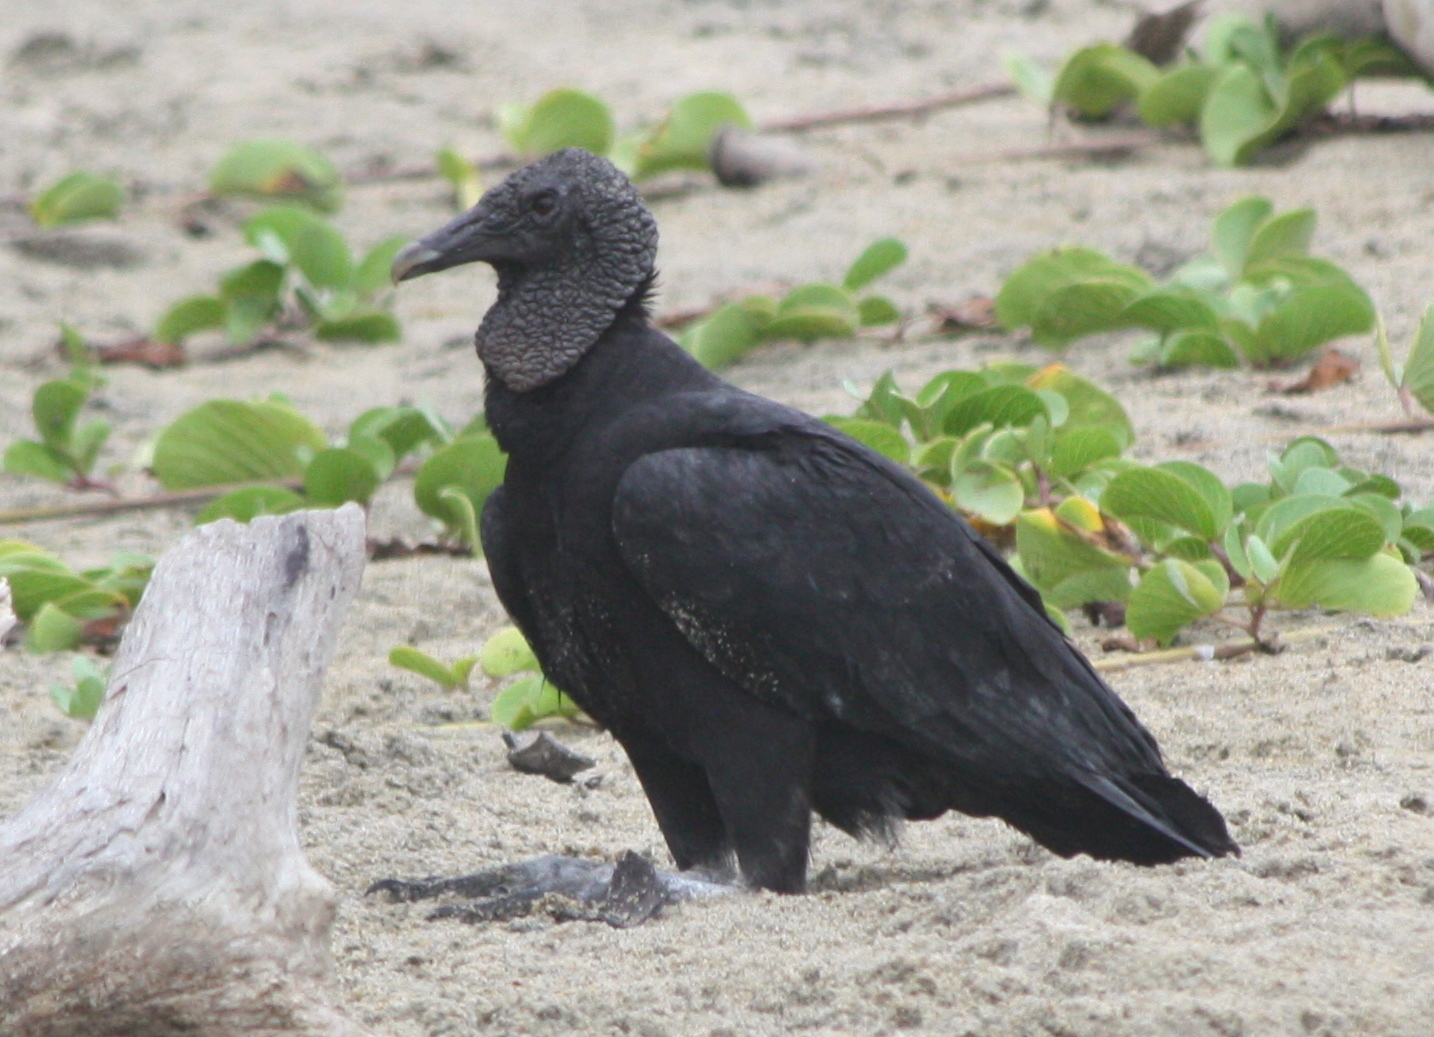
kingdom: Animalia
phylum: Chordata
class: Aves
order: Accipitriformes
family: Cathartidae
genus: Coragyps
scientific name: Coragyps atratus
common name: Black vulture
